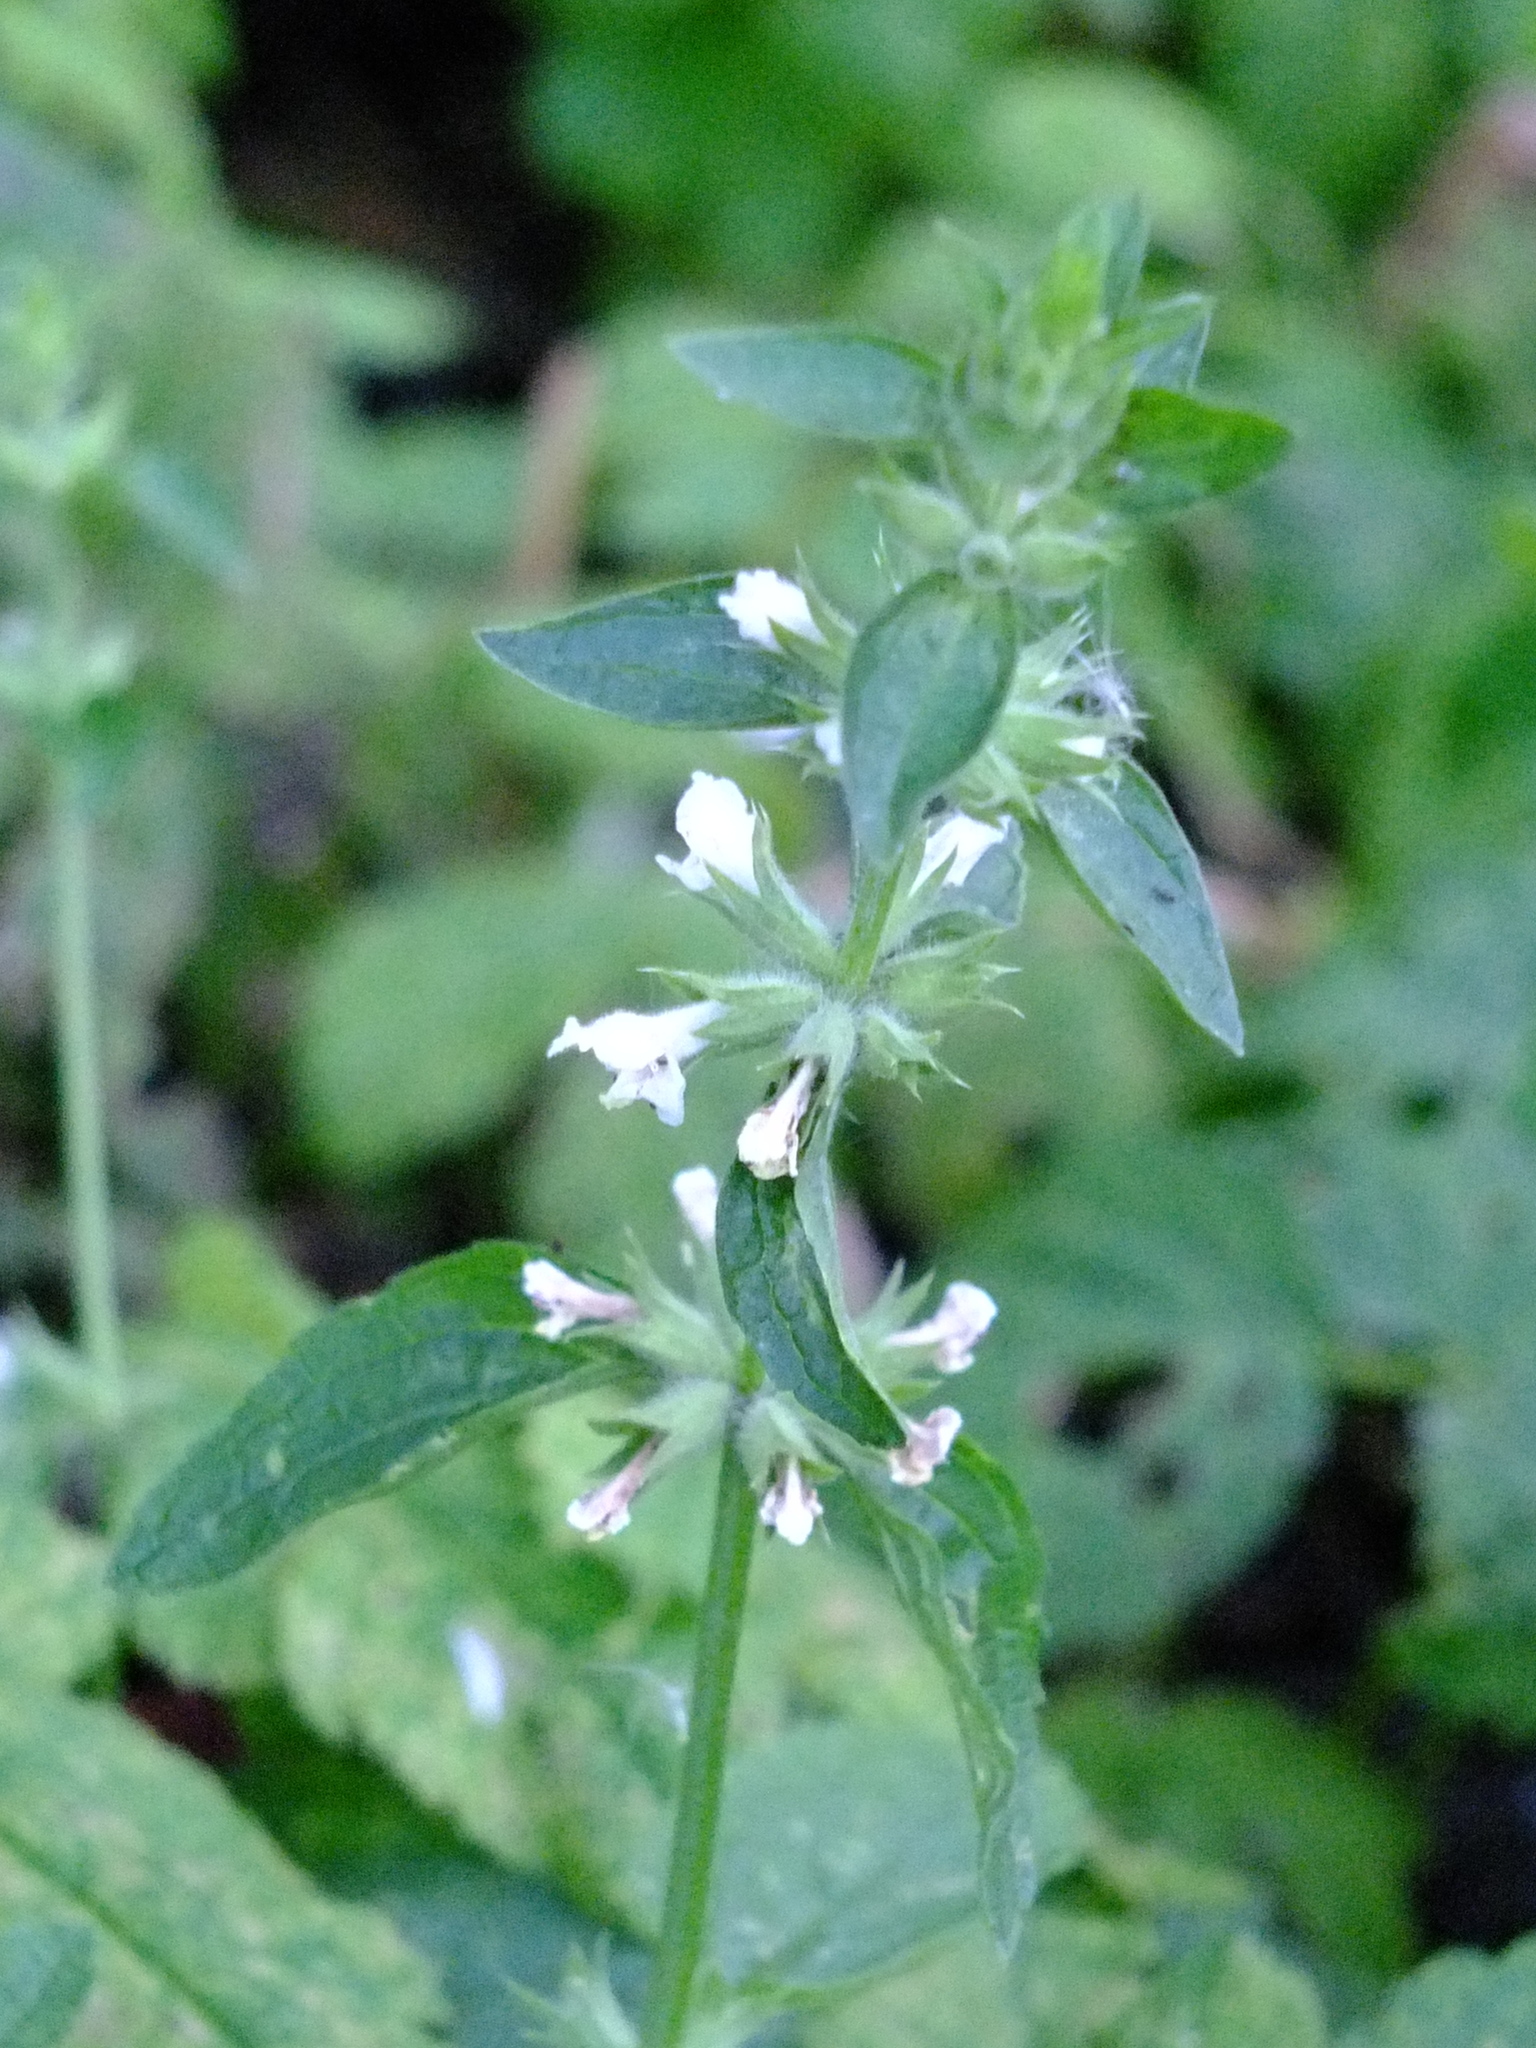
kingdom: Plantae
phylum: Tracheophyta
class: Magnoliopsida
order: Lamiales
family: Lamiaceae
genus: Stachys
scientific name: Stachys annua
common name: Annual yellow-woundwort
